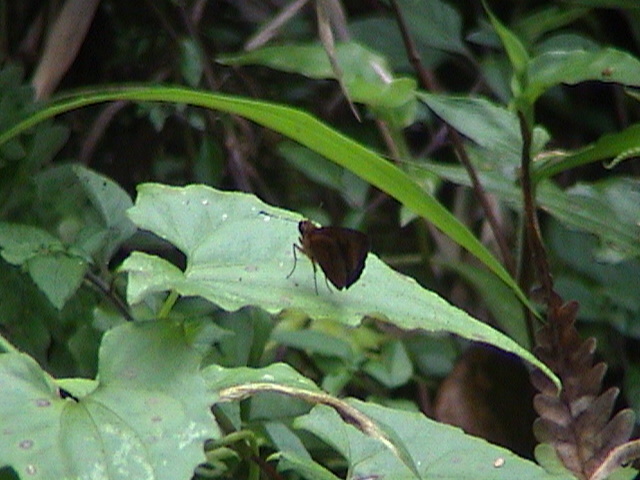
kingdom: Animalia
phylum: Arthropoda
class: Insecta
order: Lepidoptera
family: Hesperiidae
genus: Iambrix
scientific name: Iambrix salsala
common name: Chestnut bob
